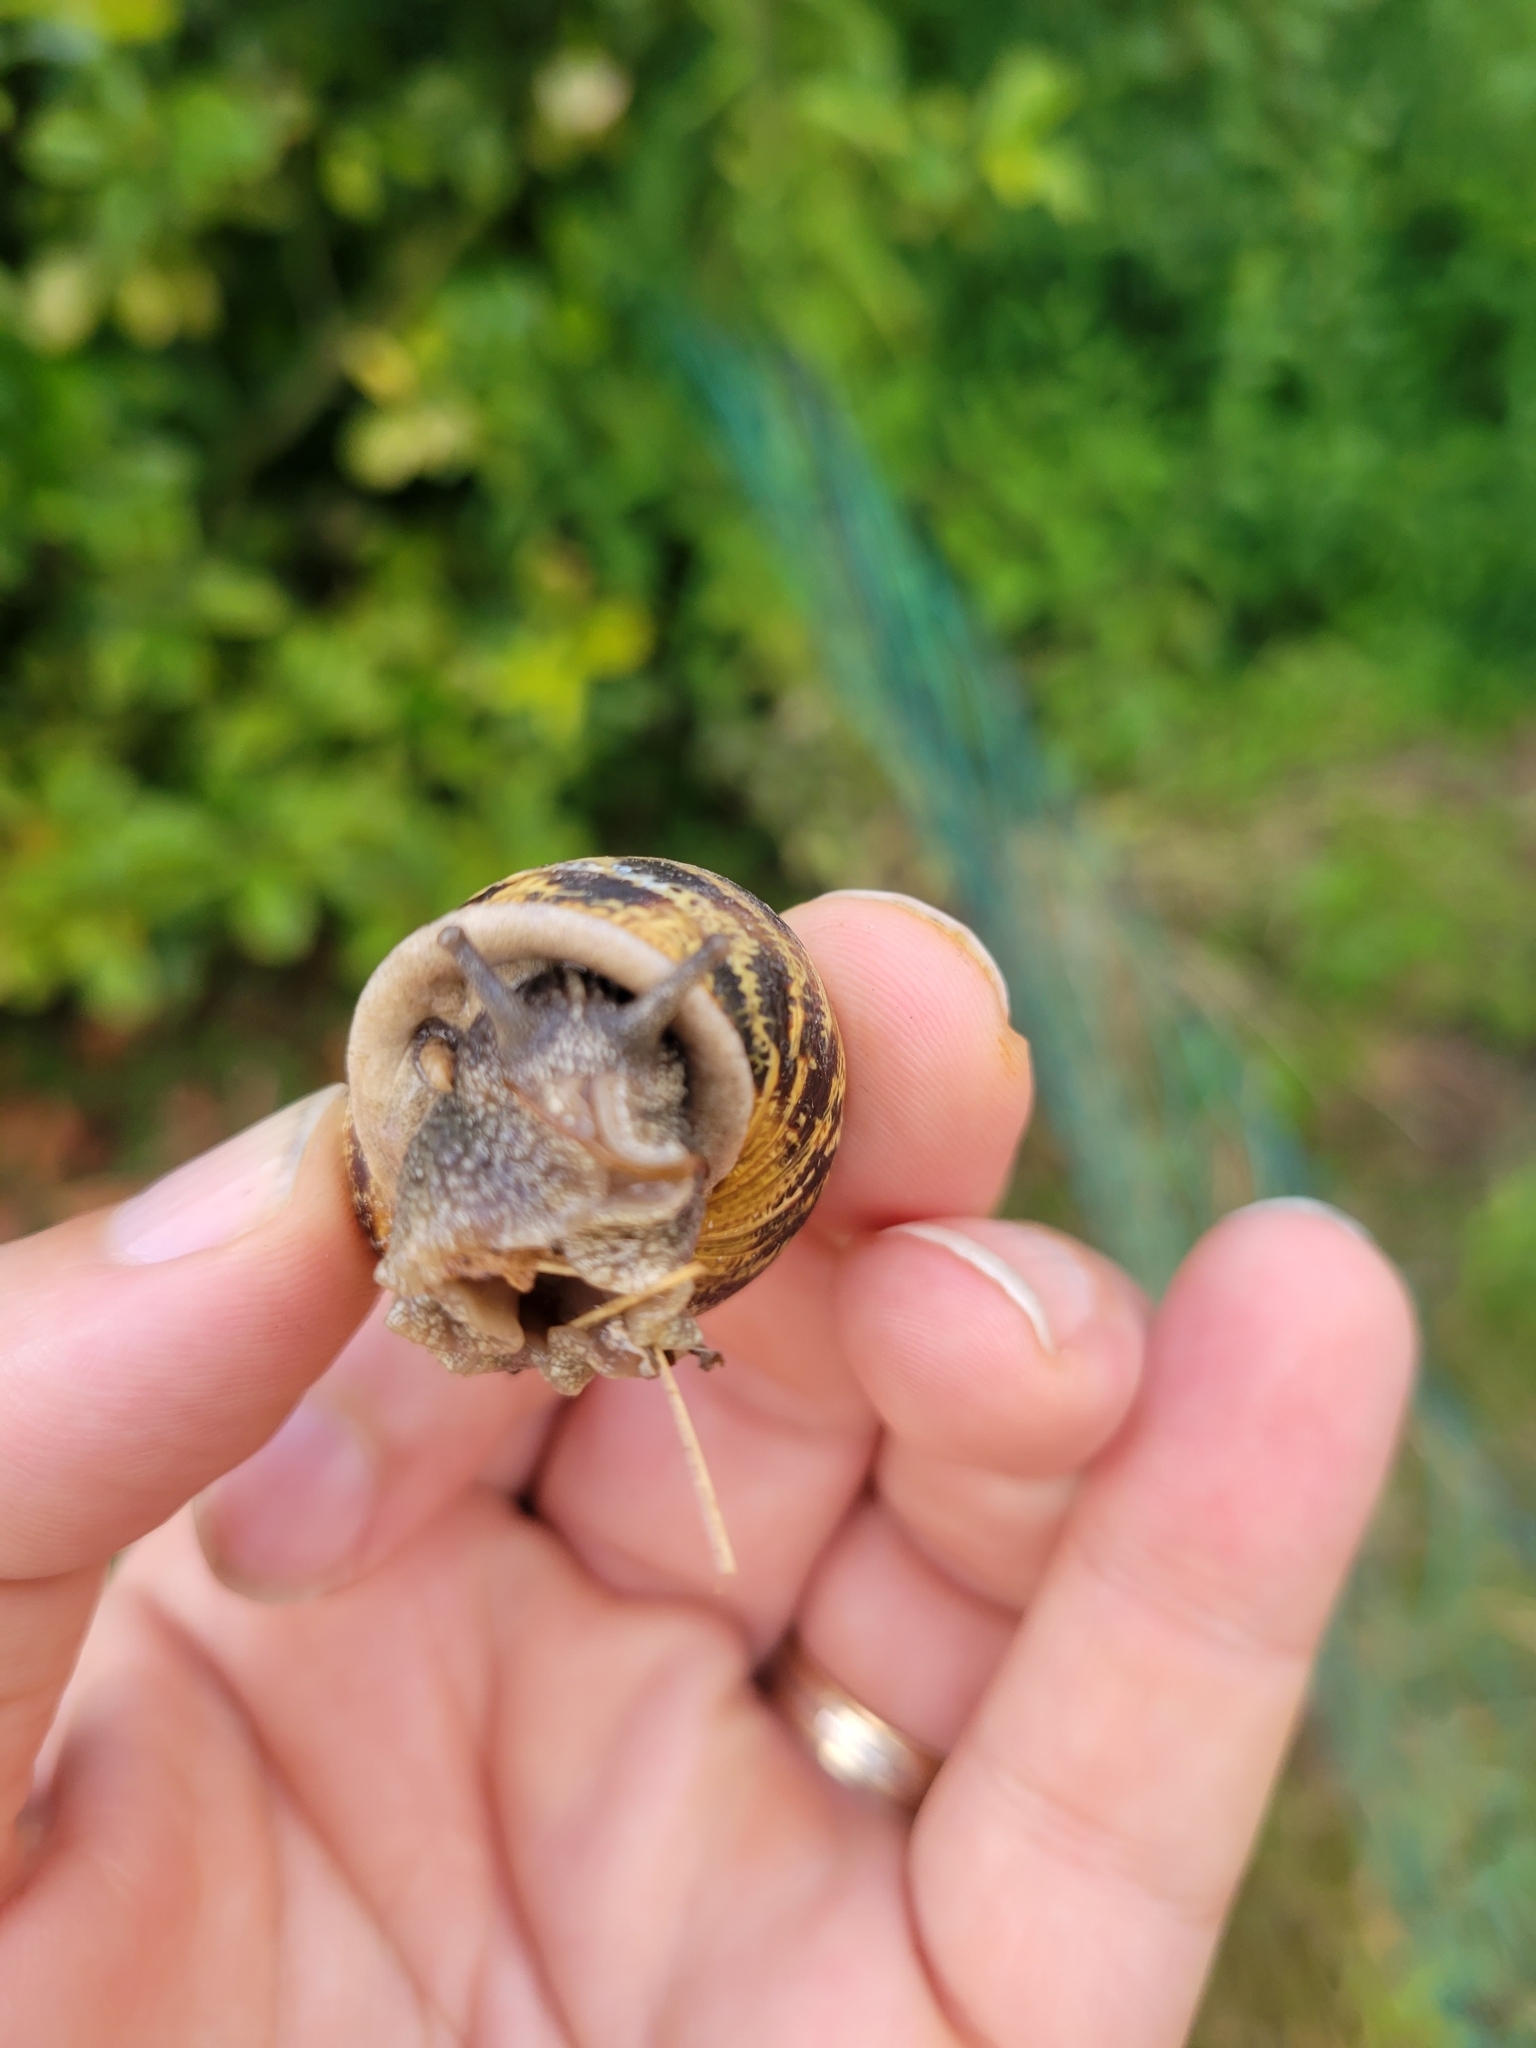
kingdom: Animalia
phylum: Mollusca
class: Gastropoda
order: Stylommatophora
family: Helicidae
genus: Cornu
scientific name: Cornu aspersum
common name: Brown garden snail
